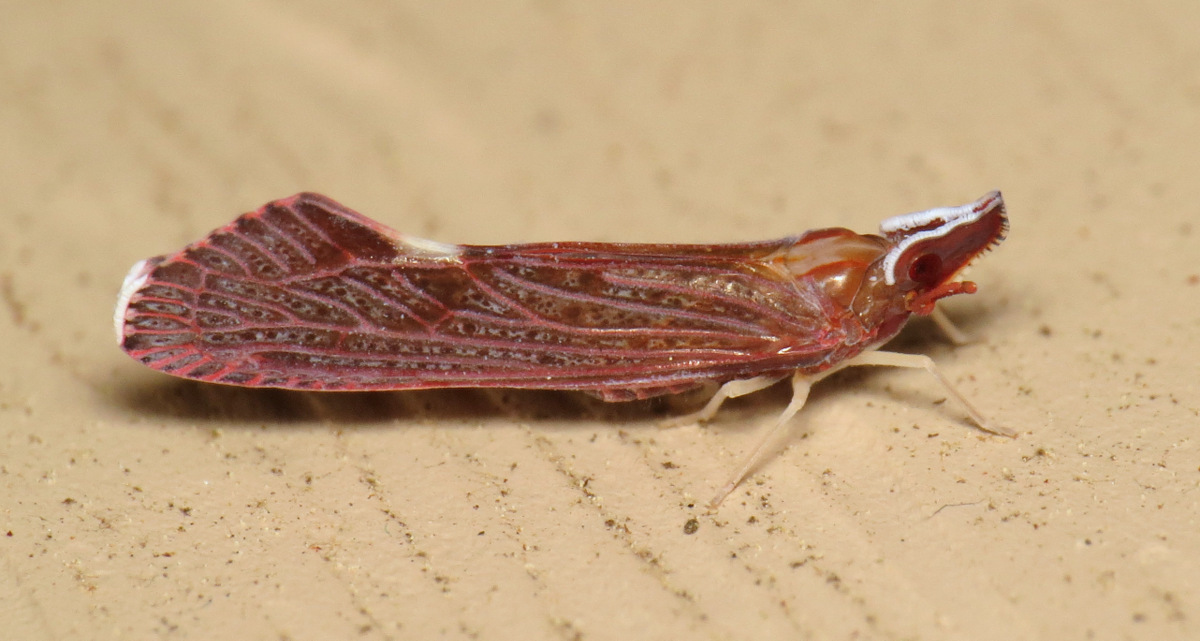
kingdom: Animalia
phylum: Arthropoda
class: Insecta
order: Hemiptera
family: Derbidae
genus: Apache
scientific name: Apache degeeri
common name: Red-fanned planthopper
